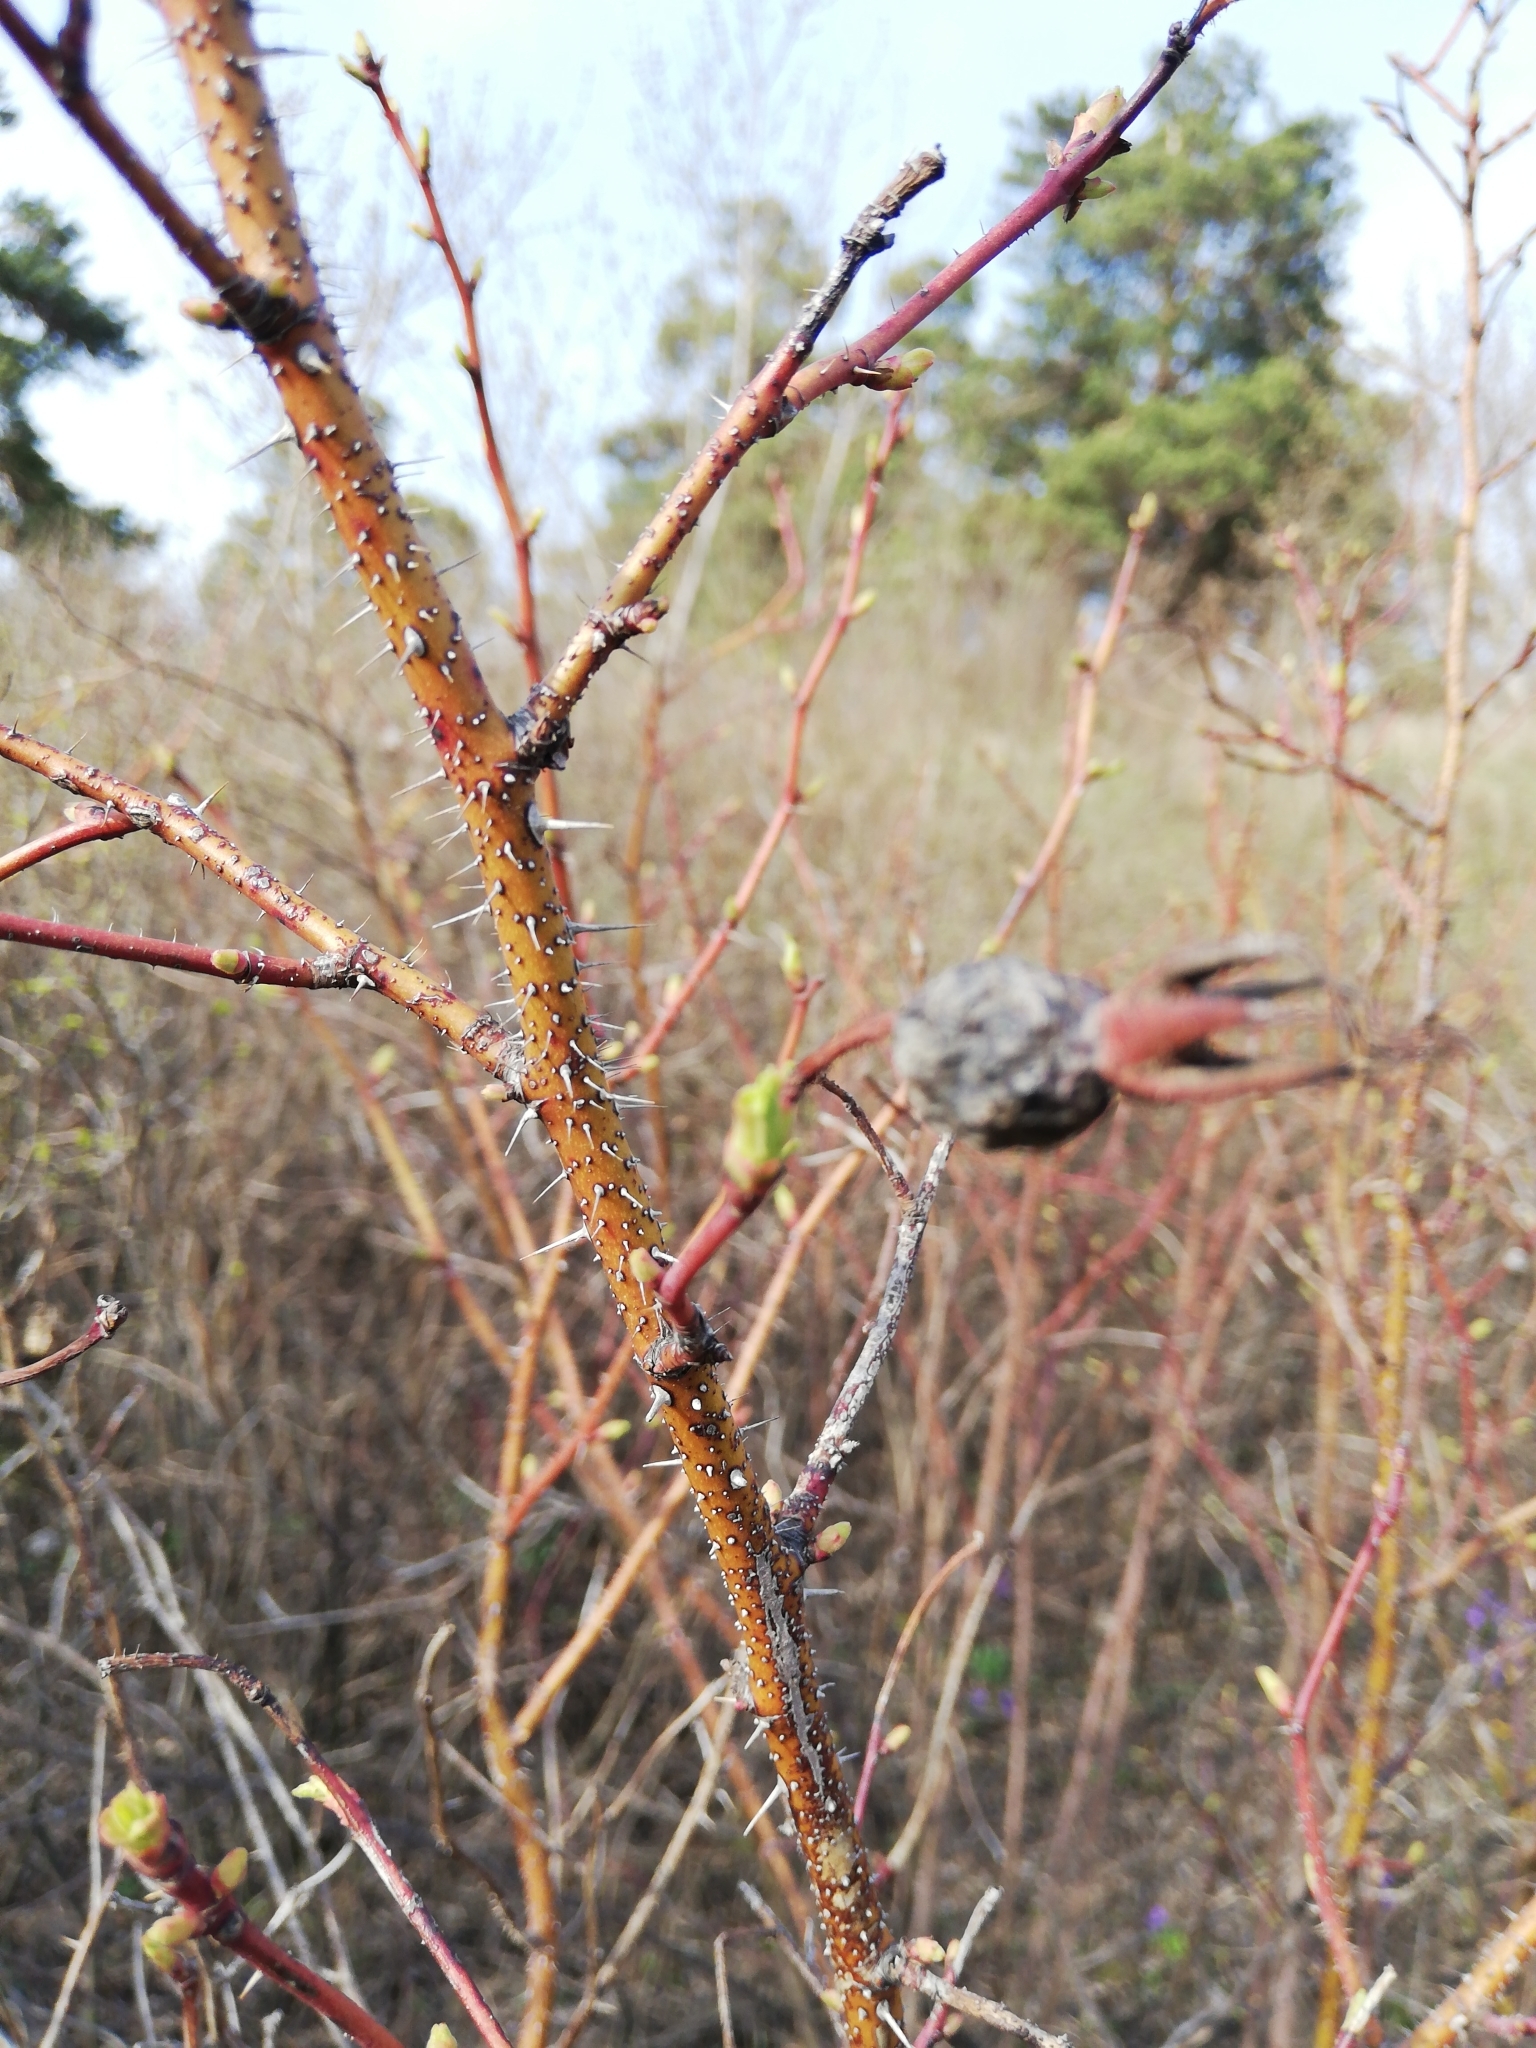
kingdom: Plantae
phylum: Tracheophyta
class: Magnoliopsida
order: Rosales
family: Rosaceae
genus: Rosa
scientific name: Rosa majalis
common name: Cinnamon rose
